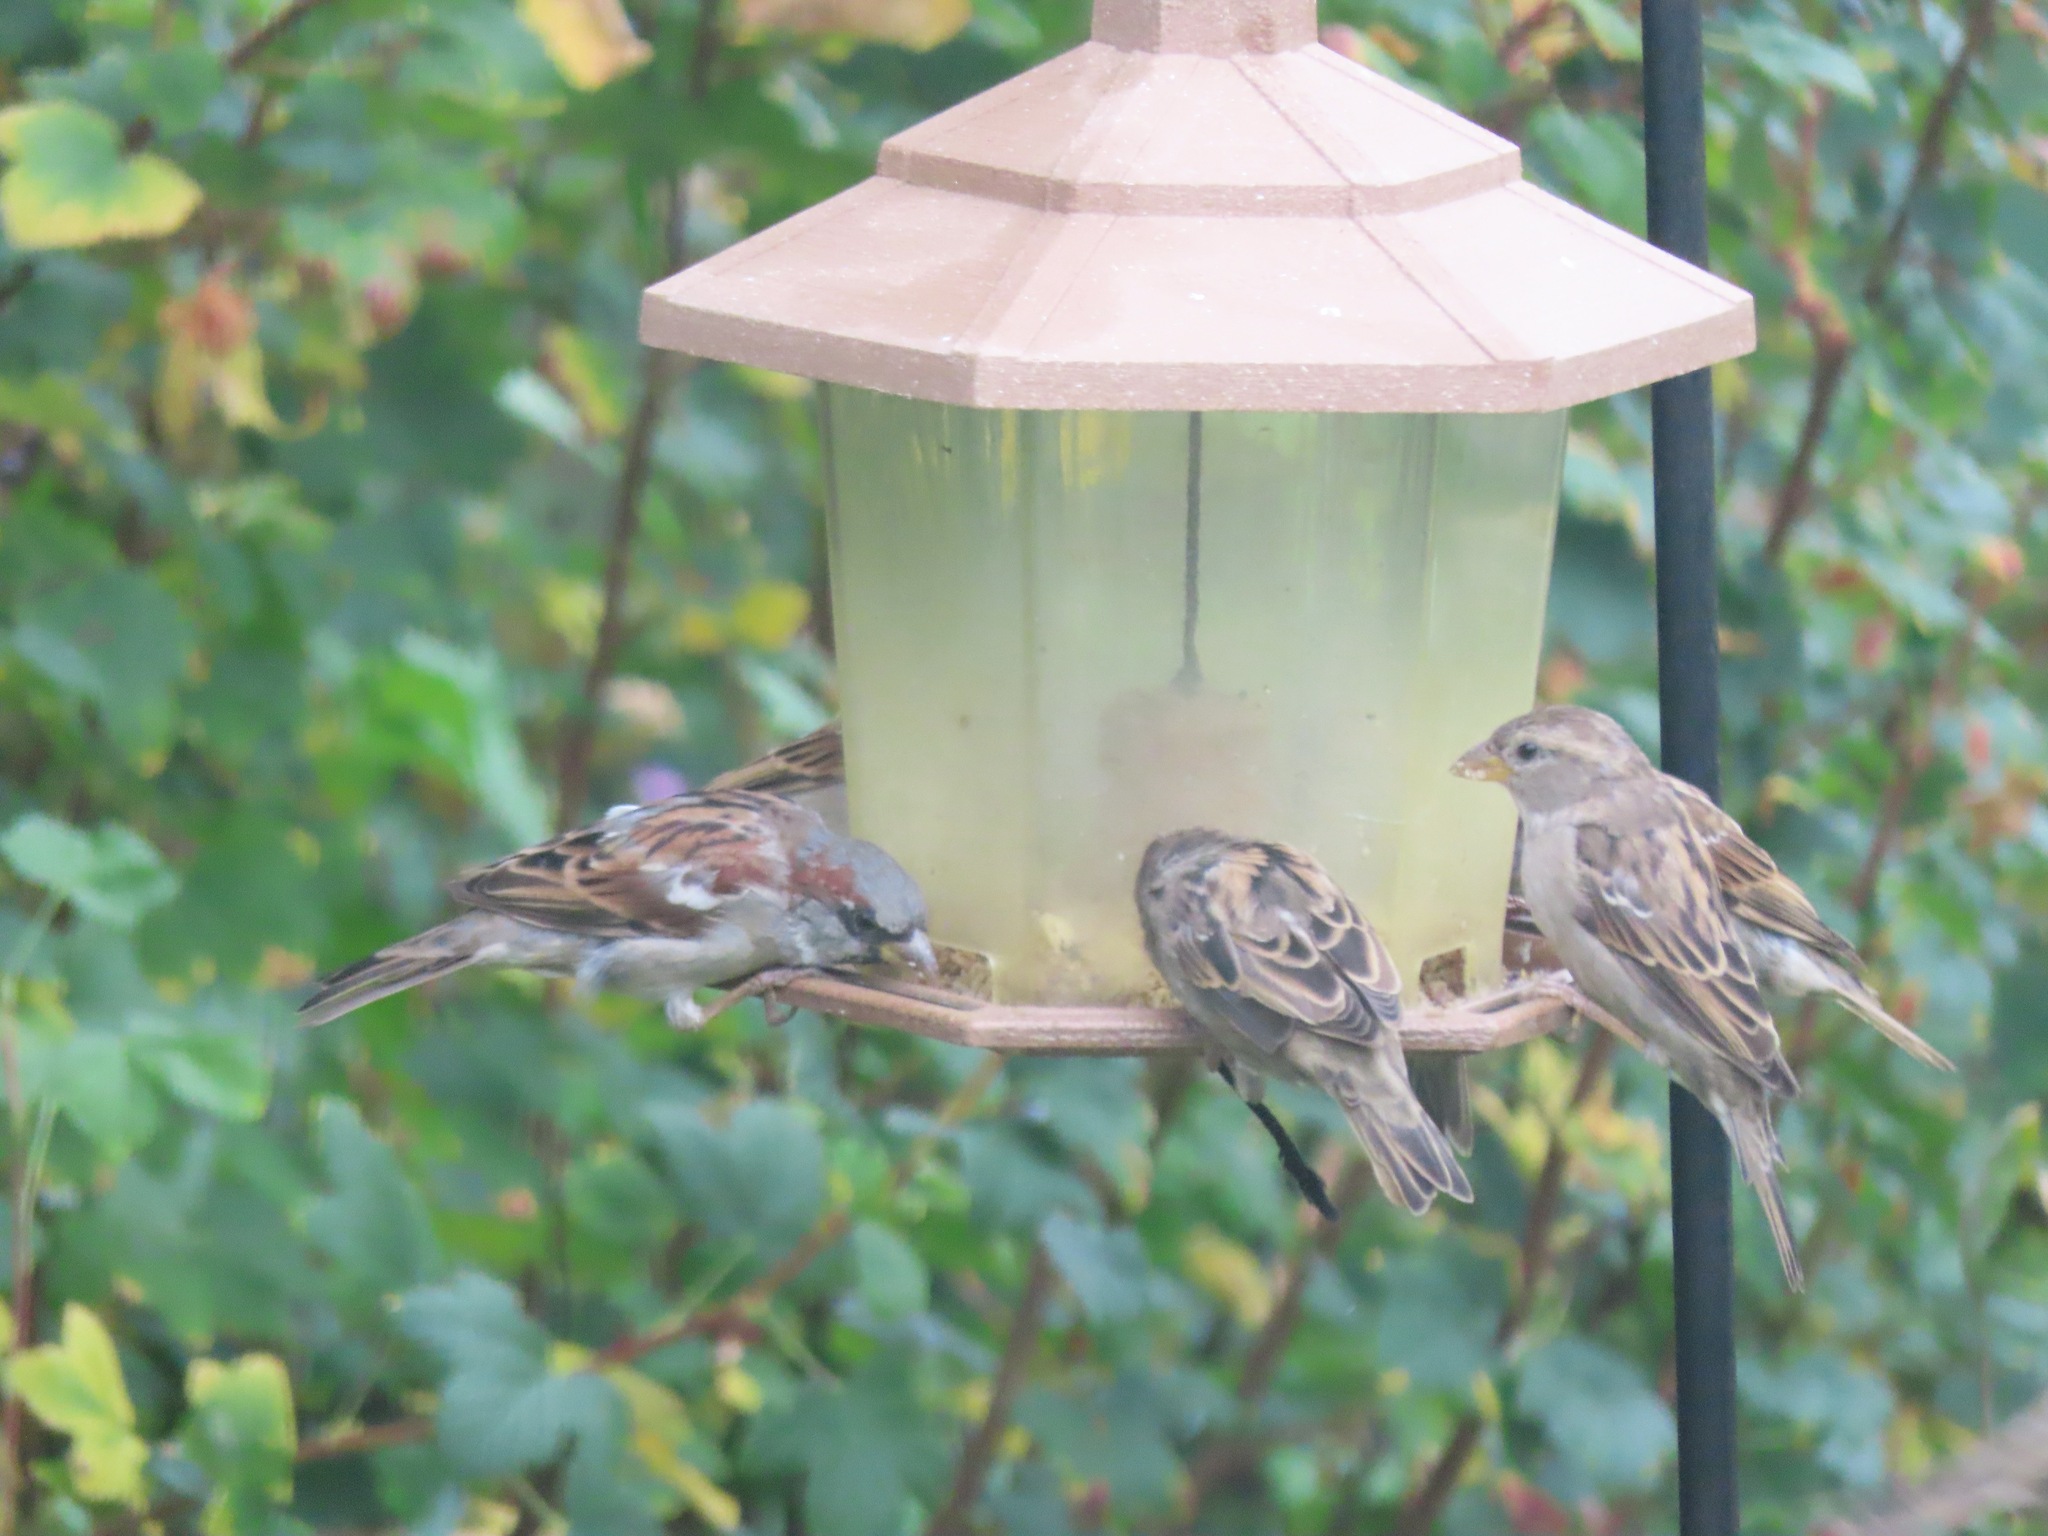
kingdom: Animalia
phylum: Chordata
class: Aves
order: Passeriformes
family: Passeridae
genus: Passer
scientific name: Passer domesticus
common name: House sparrow
